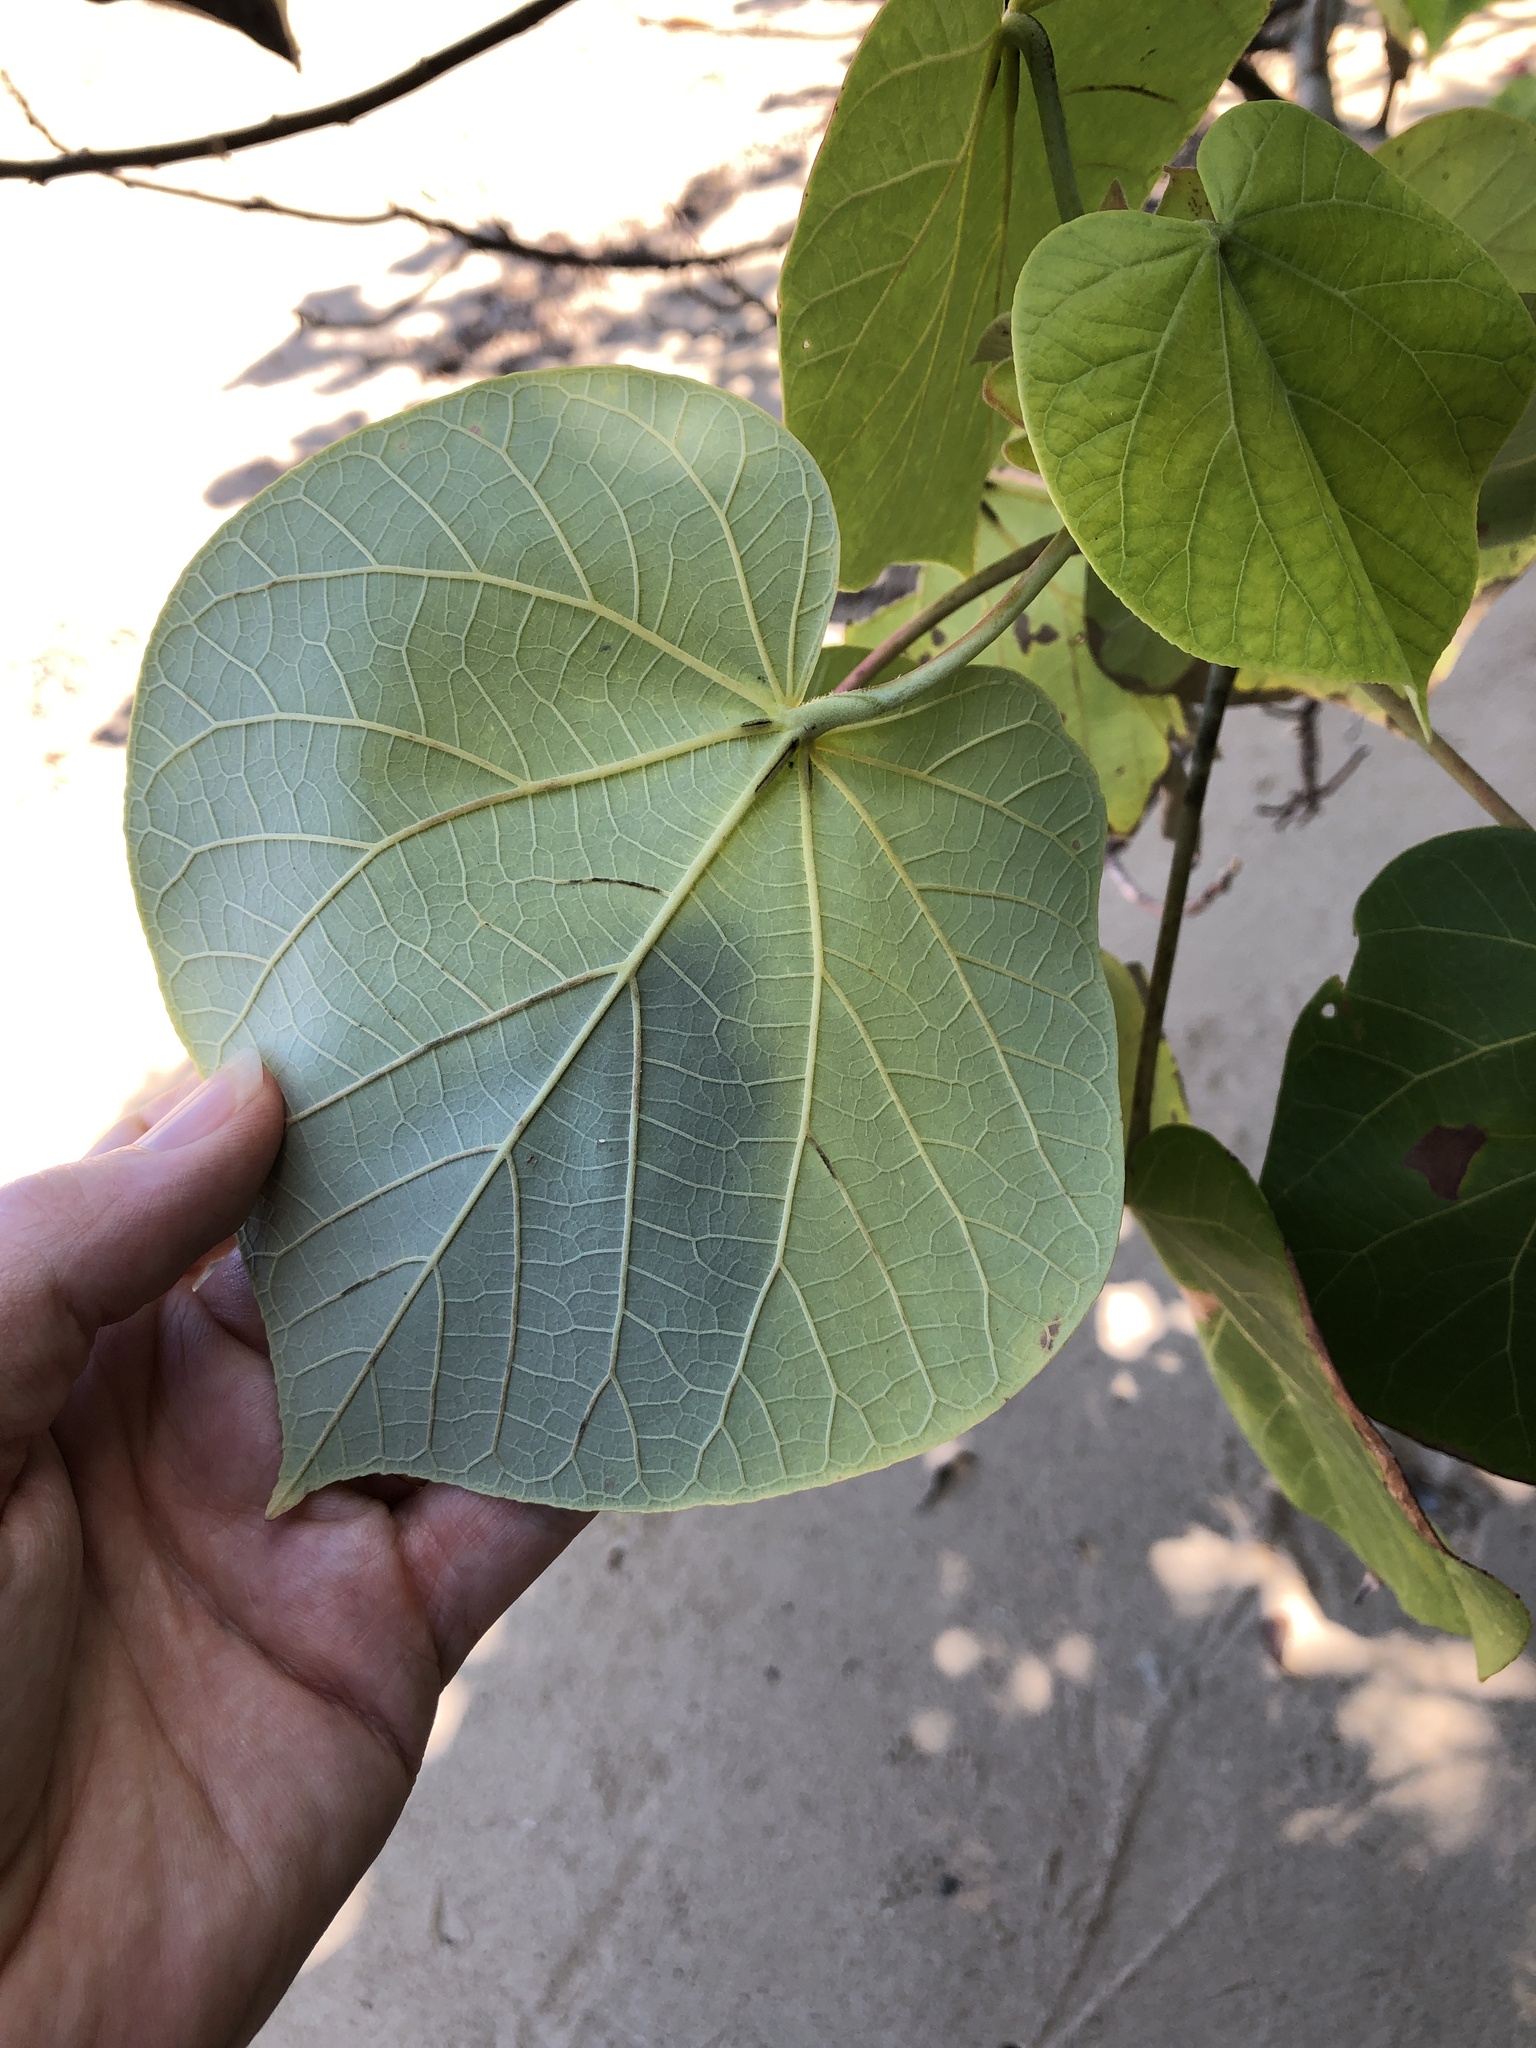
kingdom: Plantae
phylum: Tracheophyta
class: Magnoliopsida
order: Malvales
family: Malvaceae
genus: Talipariti
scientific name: Talipariti tiliaceum
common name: Sea hibiscus
